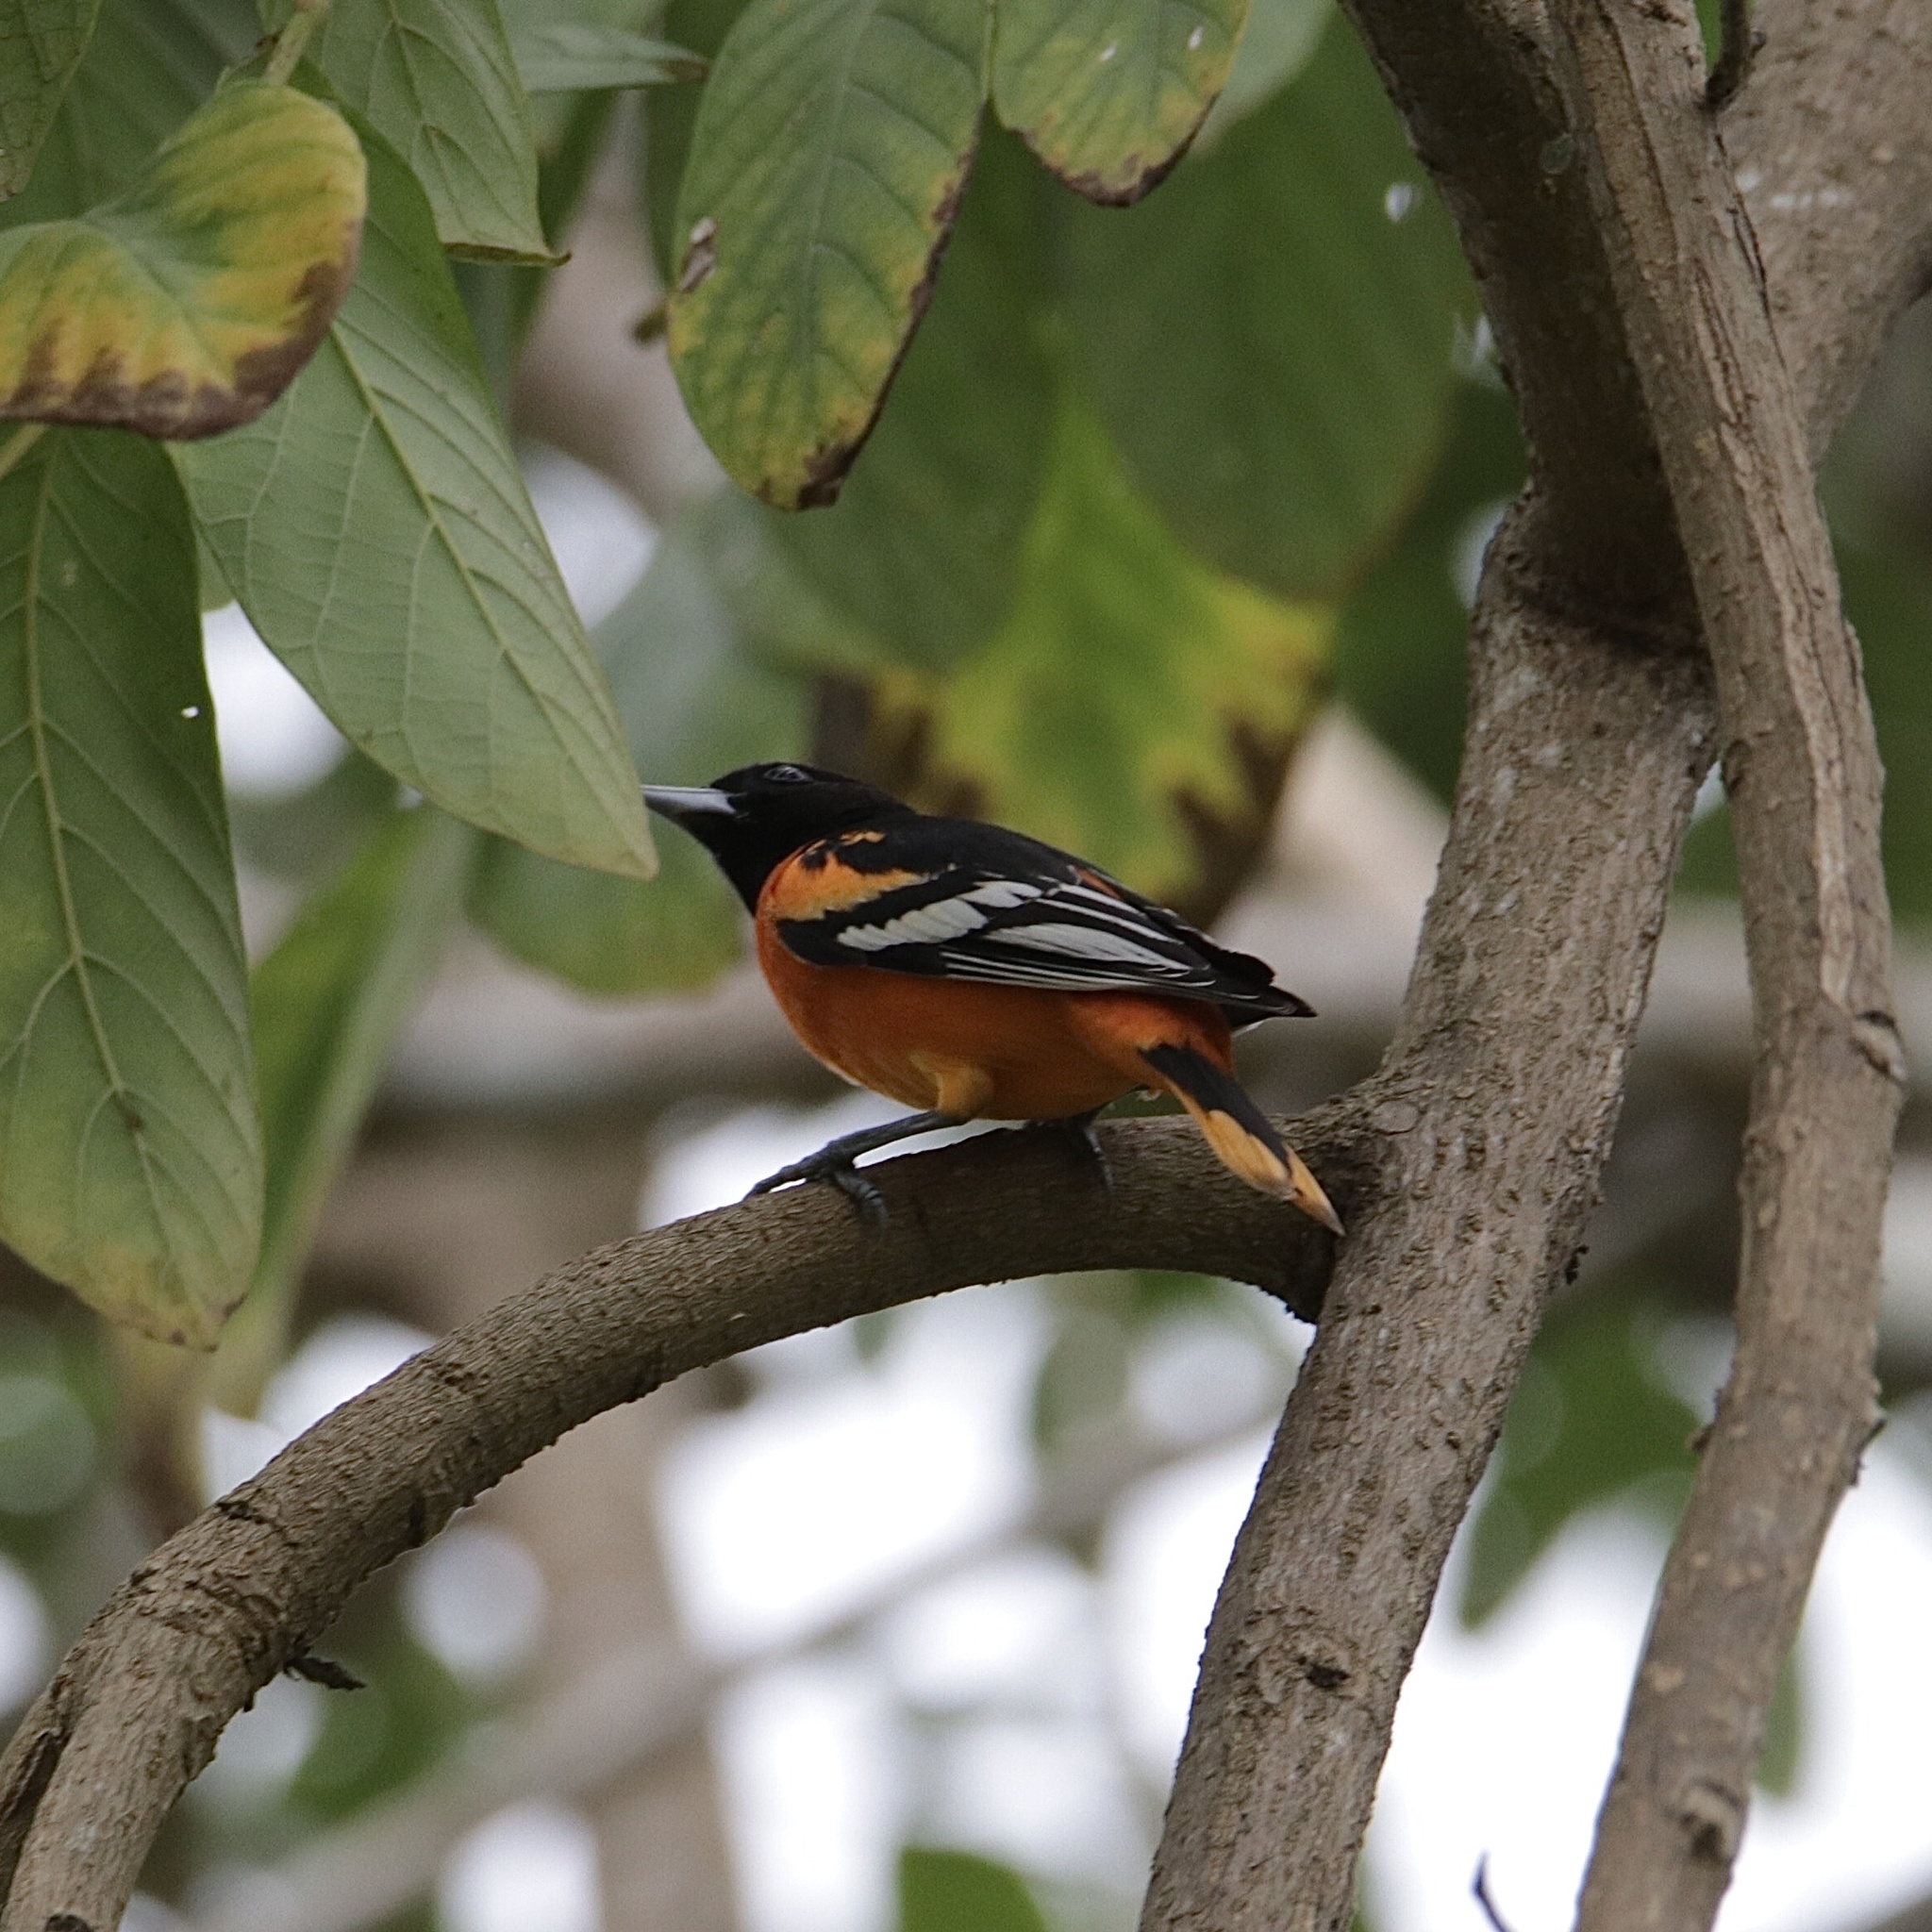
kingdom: Animalia
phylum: Chordata
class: Aves
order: Passeriformes
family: Icteridae
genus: Icterus
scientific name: Icterus galbula
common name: Baltimore oriole
